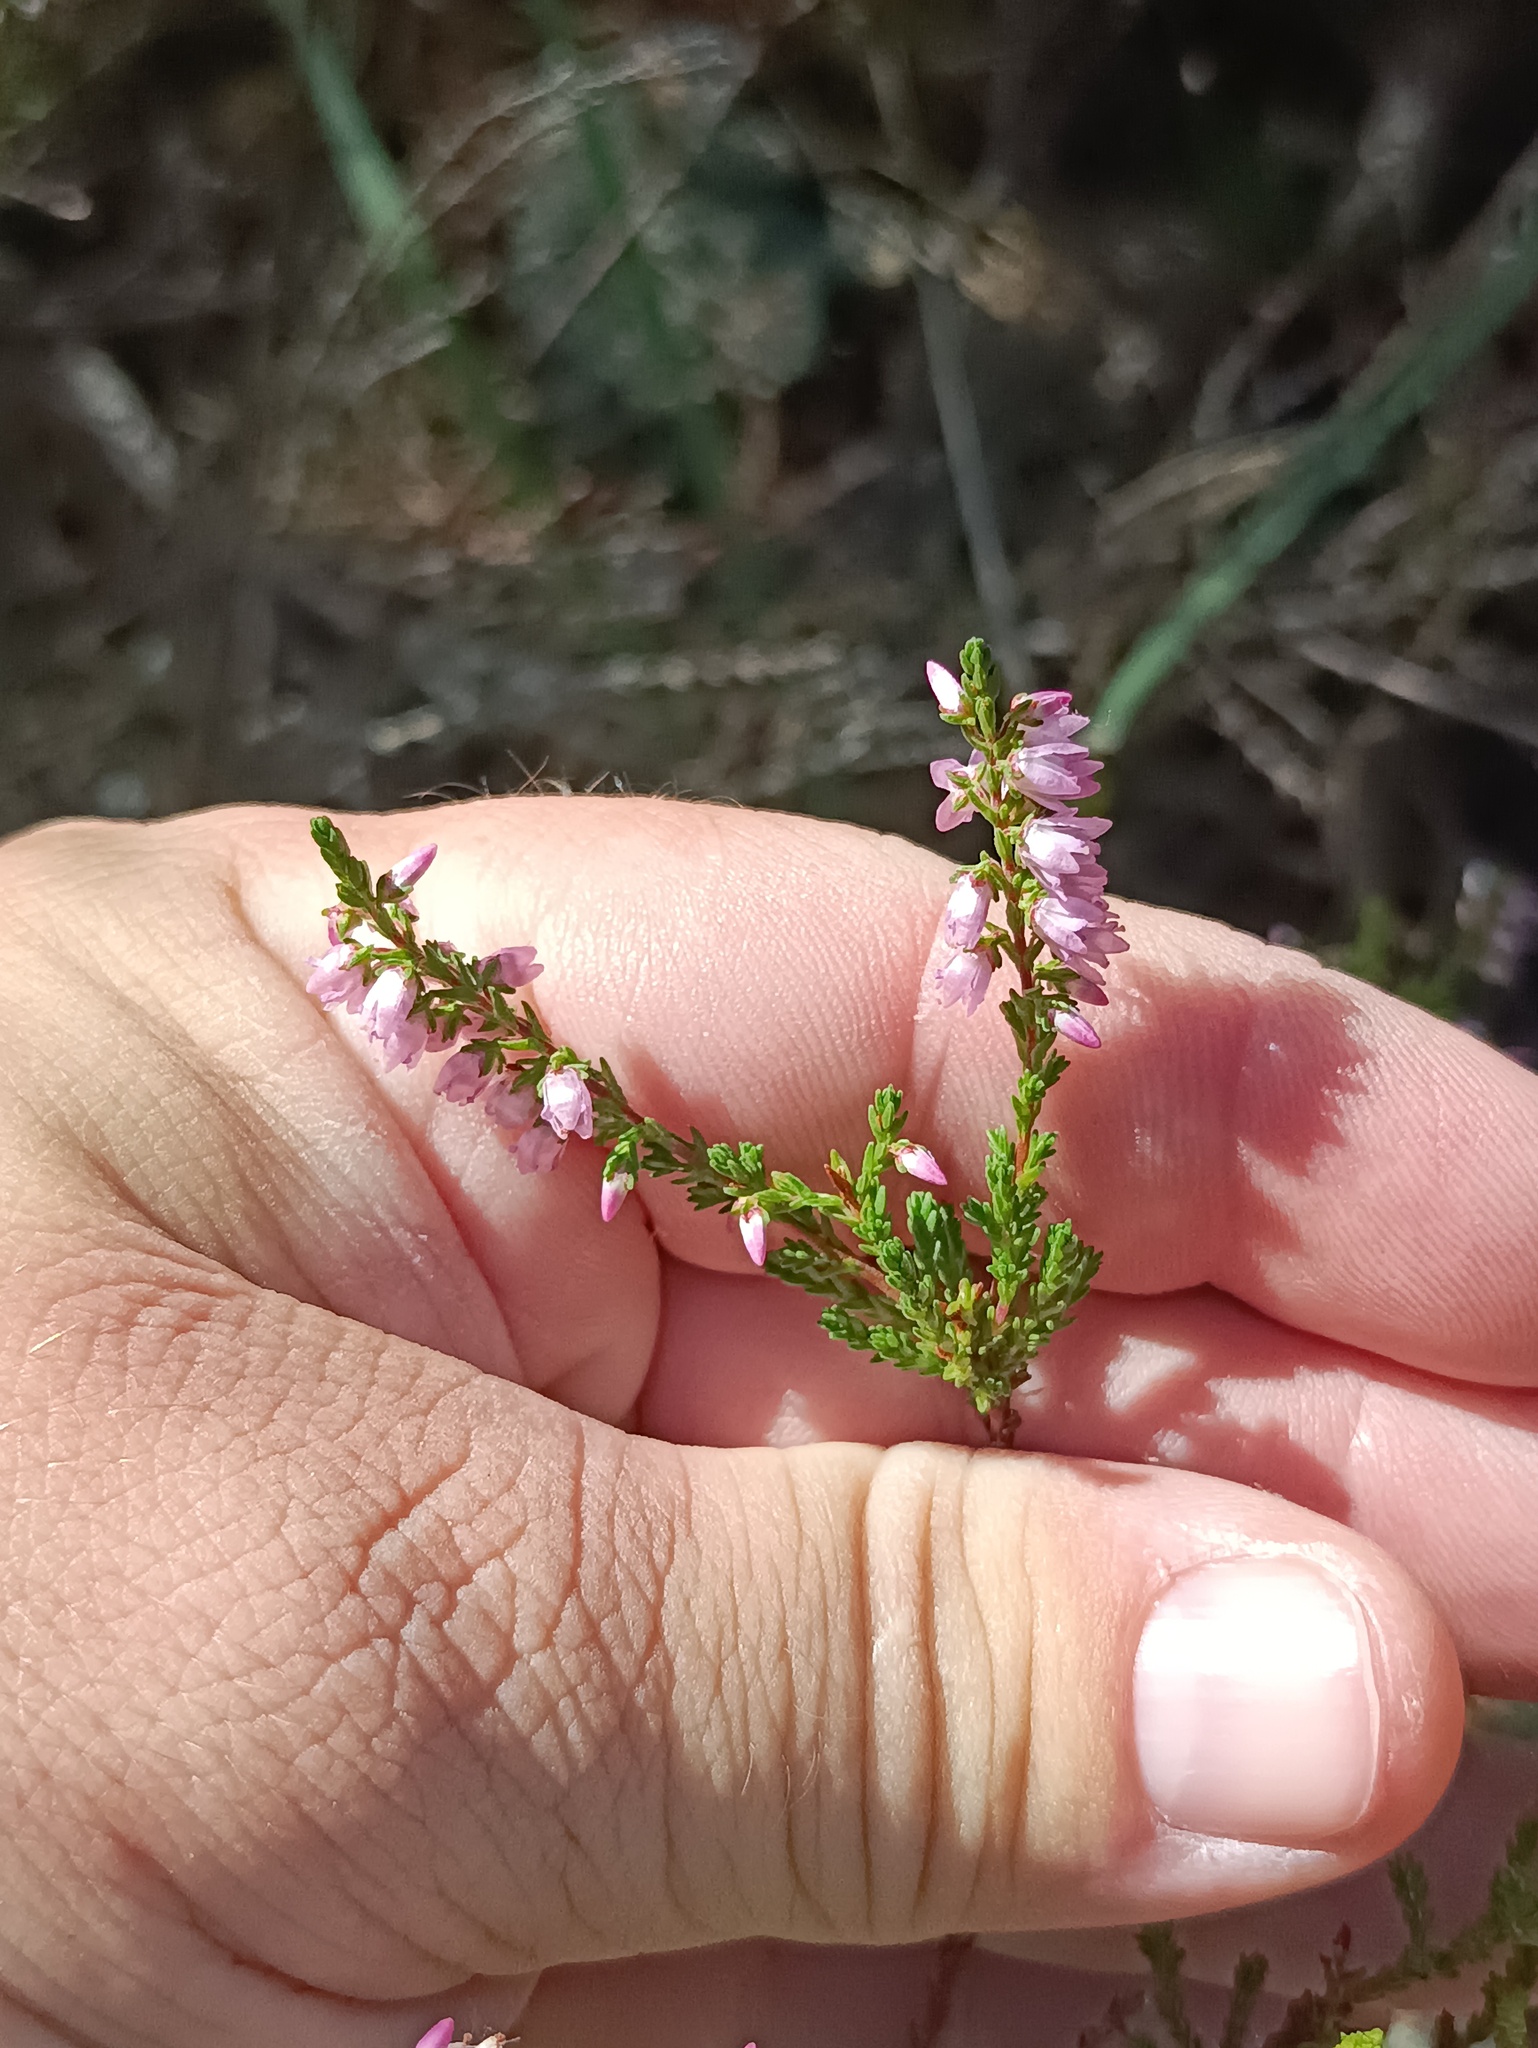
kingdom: Plantae
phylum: Tracheophyta
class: Magnoliopsida
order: Ericales
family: Ericaceae
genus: Calluna
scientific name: Calluna vulgaris
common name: Heather
